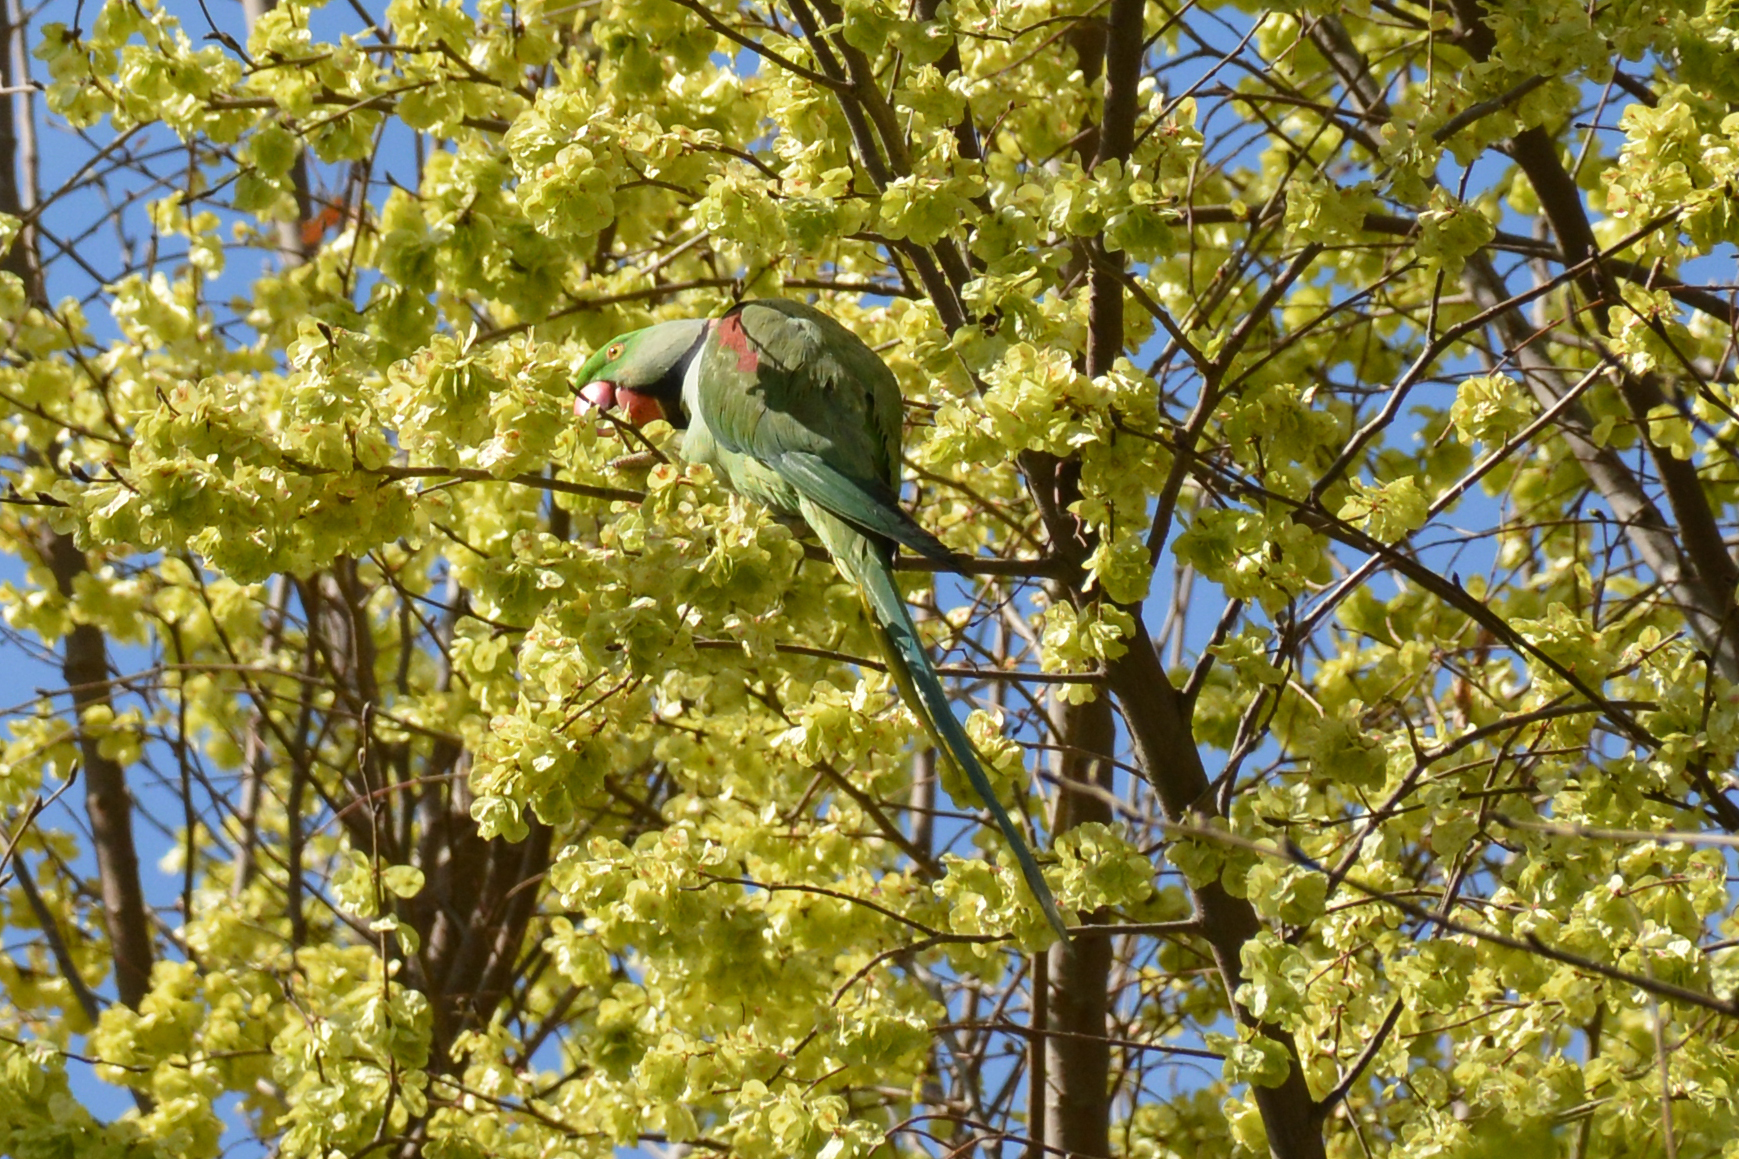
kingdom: Animalia
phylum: Chordata
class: Aves
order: Psittaciformes
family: Psittacidae
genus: Psittacula
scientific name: Psittacula eupatria
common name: Alexandrine parakeet
